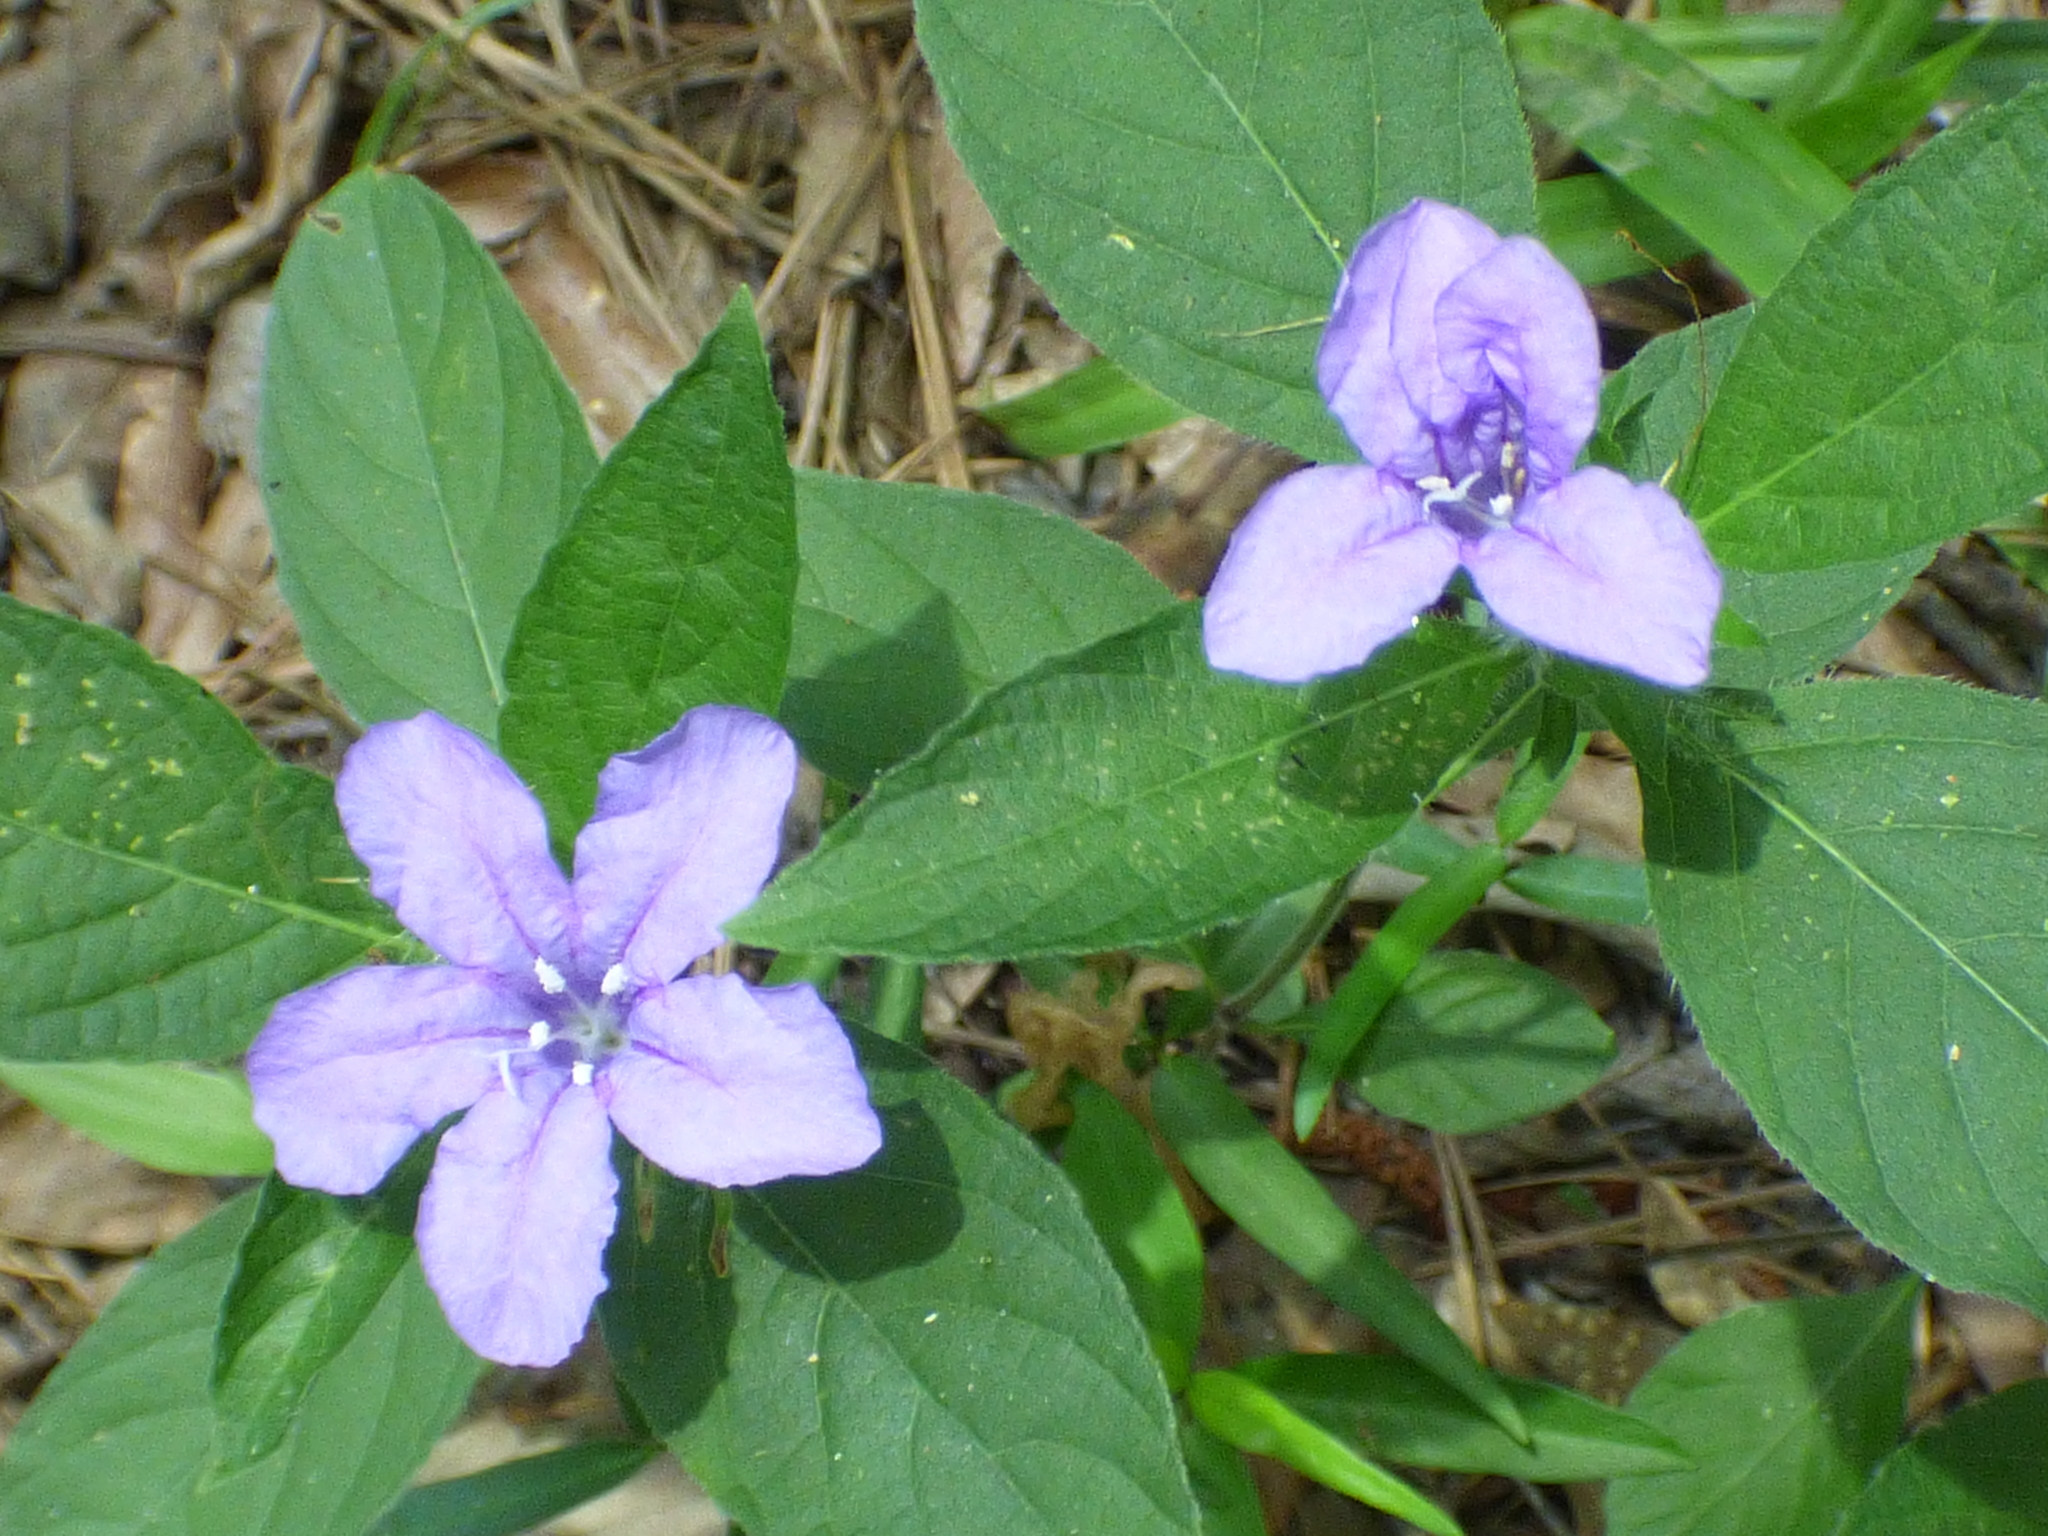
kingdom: Plantae
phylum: Tracheophyta
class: Magnoliopsida
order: Lamiales
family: Acanthaceae
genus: Ruellia
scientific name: Ruellia caroliniensis
